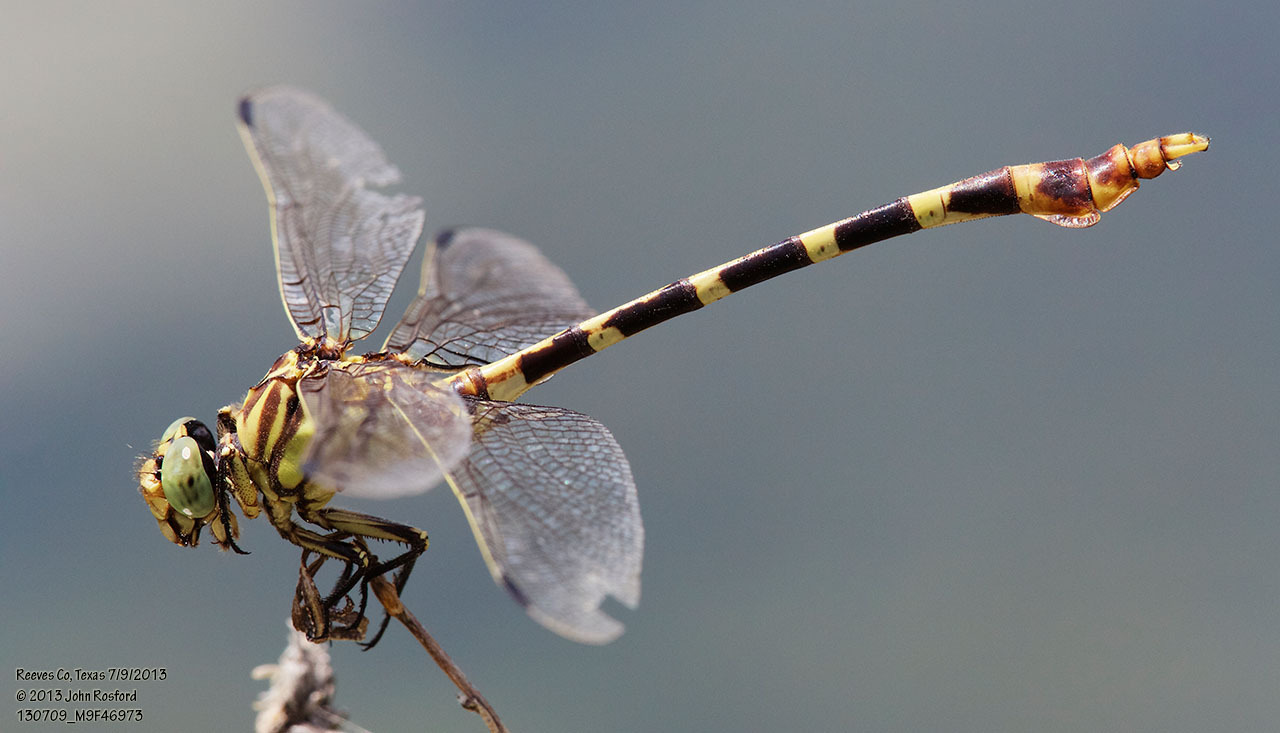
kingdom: Animalia
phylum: Arthropoda
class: Insecta
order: Odonata
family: Gomphidae
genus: Phyllogomphoides
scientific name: Phyllogomphoides stigmatus
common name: Four-striped leaftail
